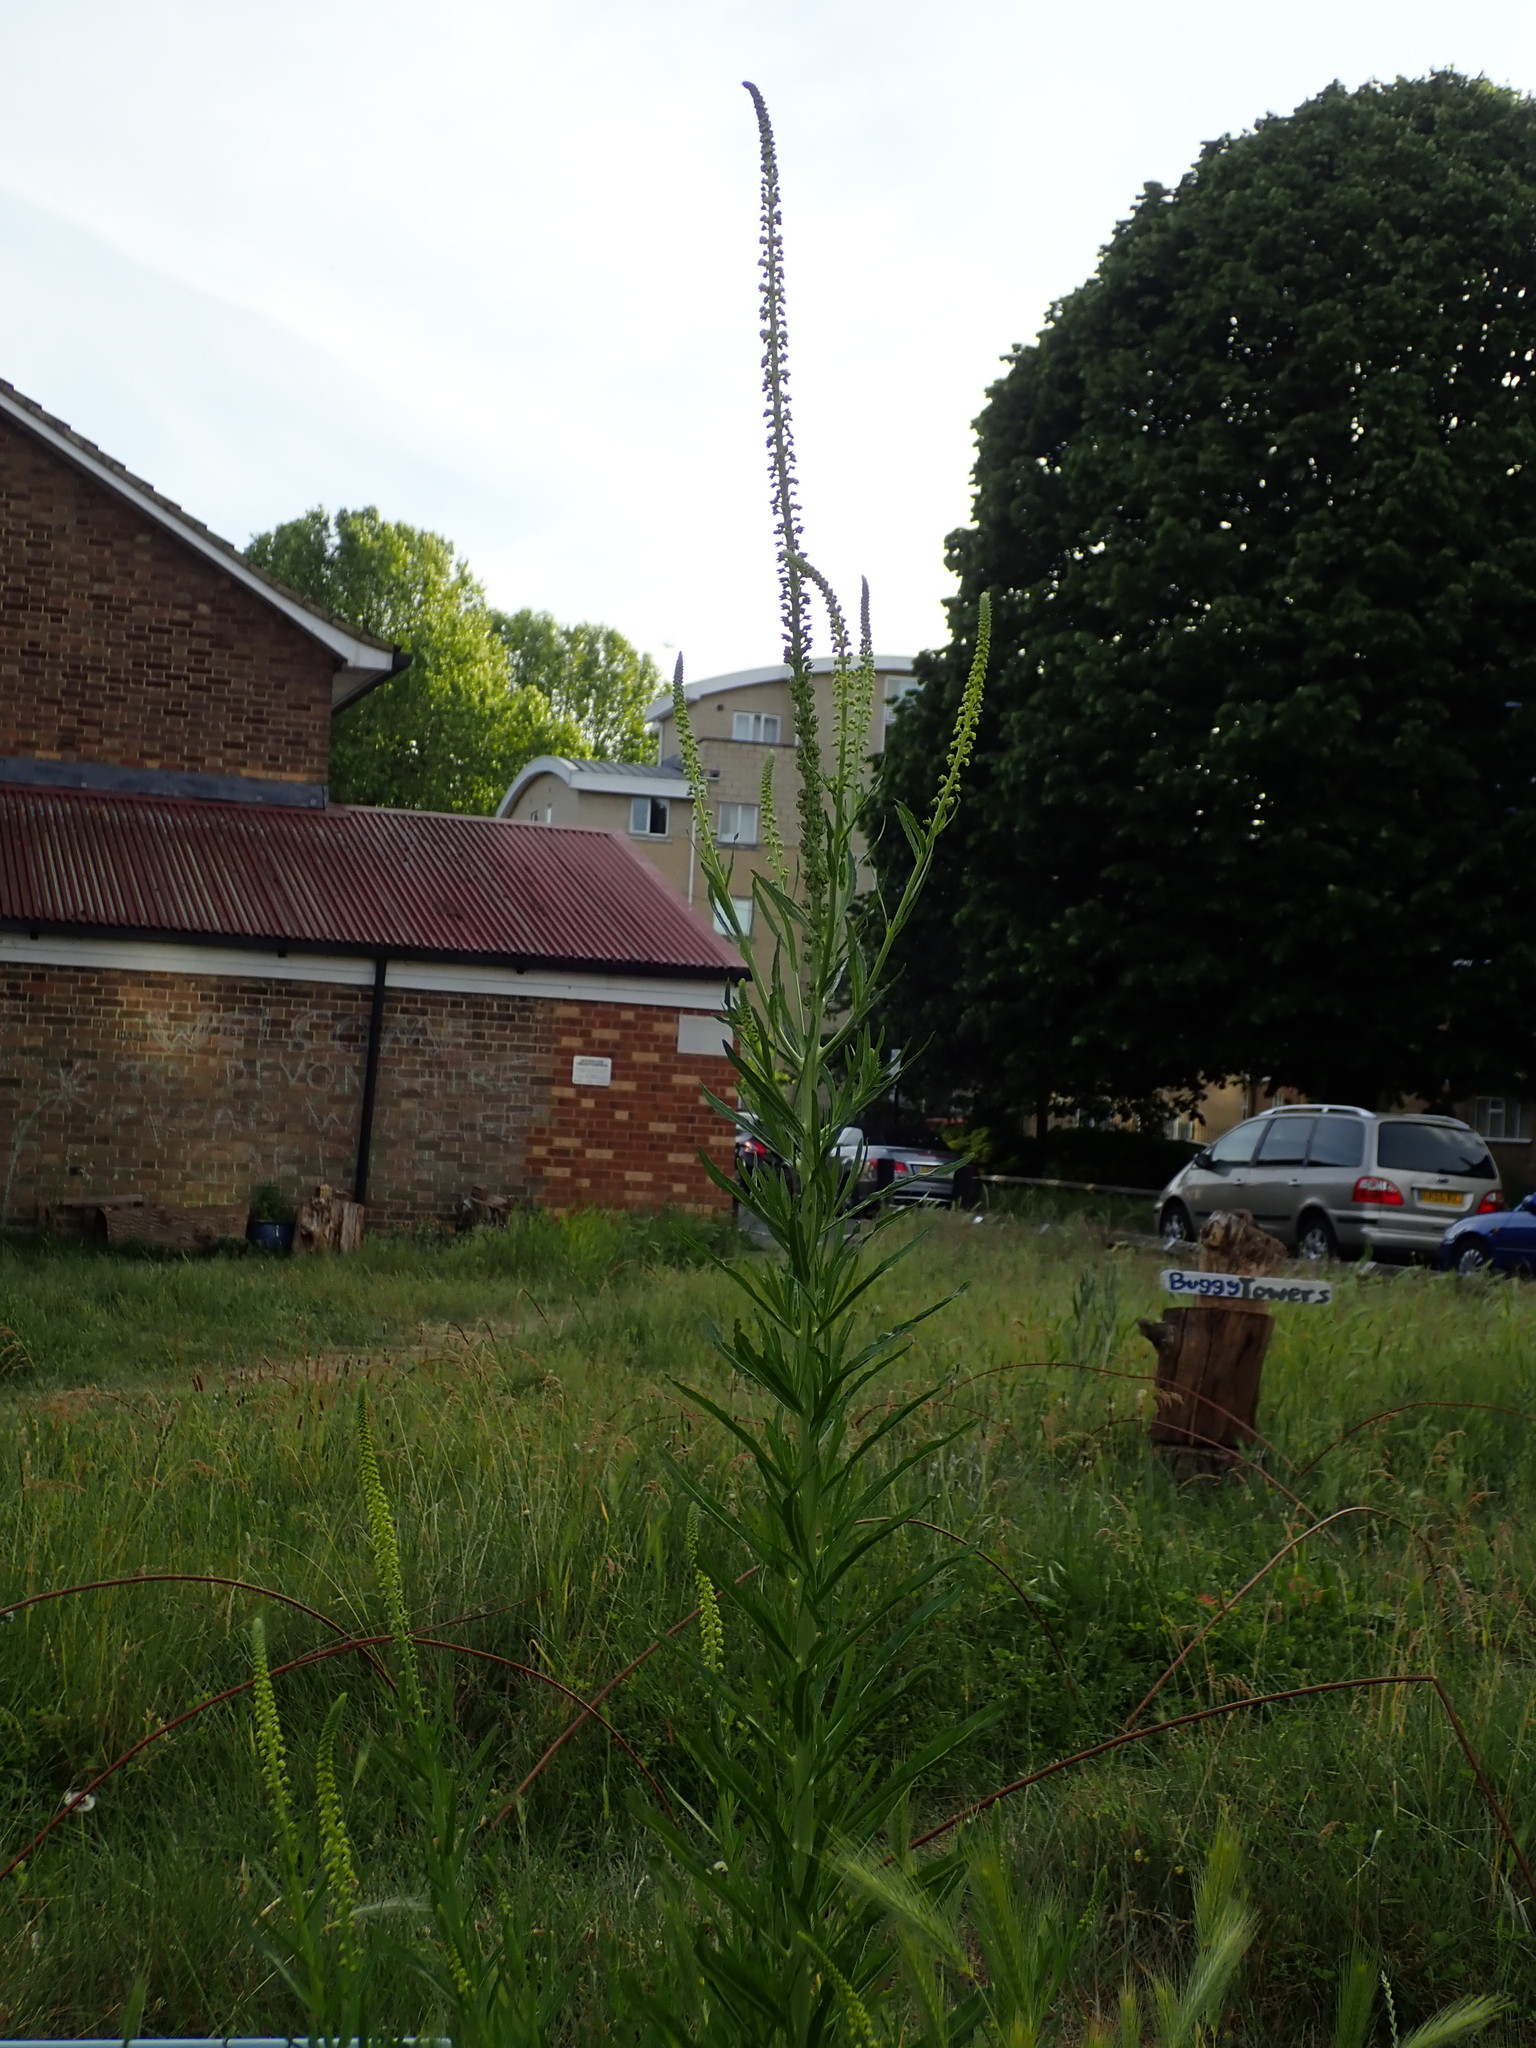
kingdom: Plantae
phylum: Tracheophyta
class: Magnoliopsida
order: Brassicales
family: Resedaceae
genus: Reseda
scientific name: Reseda luteola
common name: Weld
